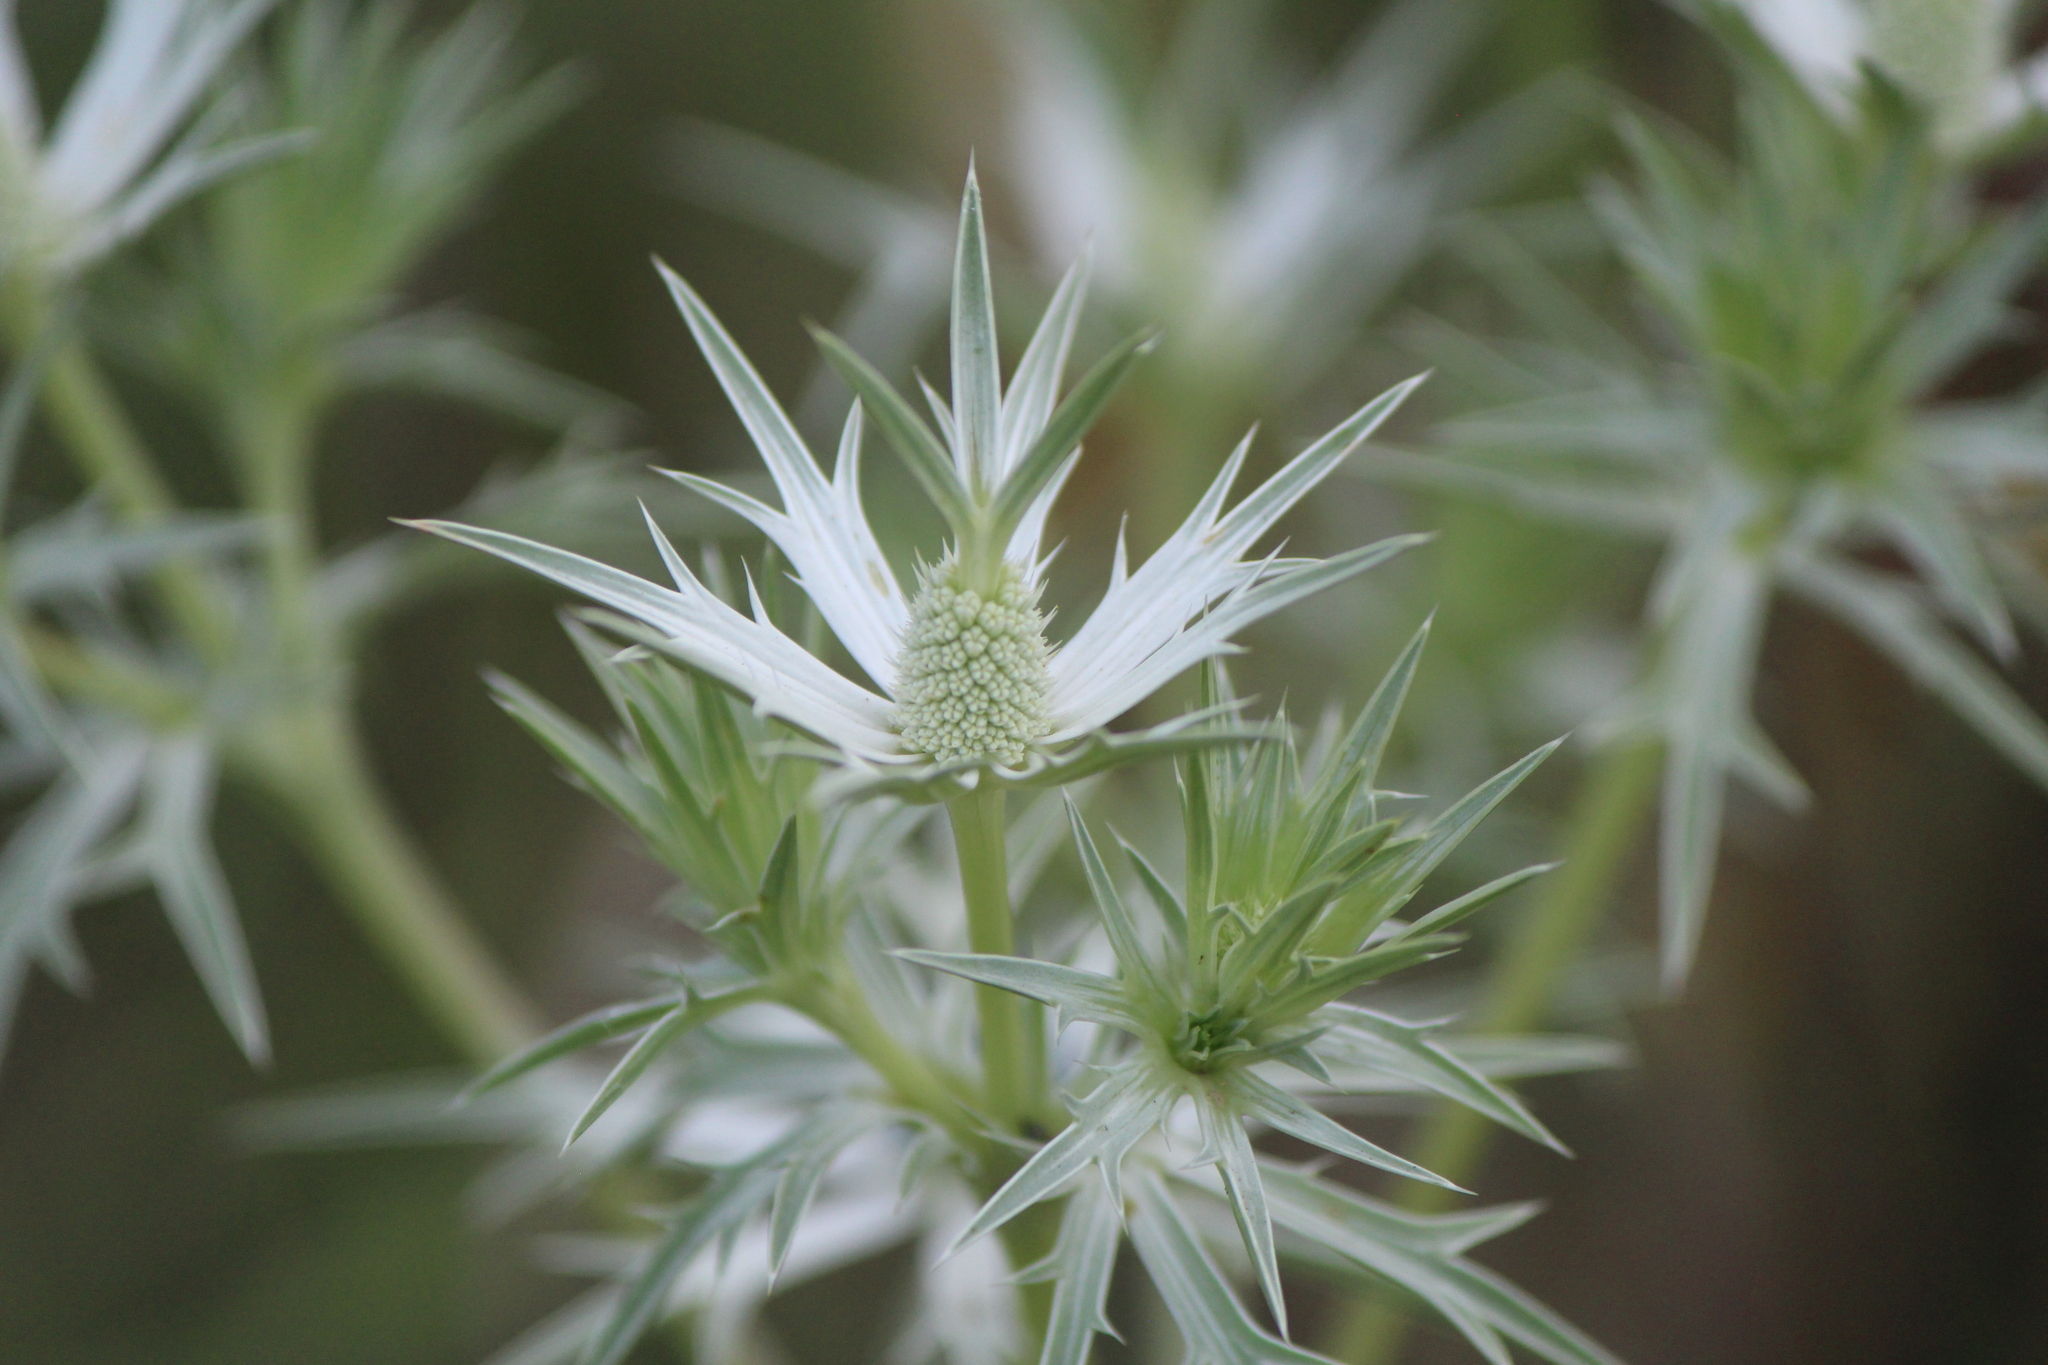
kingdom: Plantae
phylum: Tracheophyta
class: Magnoliopsida
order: Apiales
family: Apiaceae
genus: Eryngium
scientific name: Eryngium heterophyllum
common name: Mexican thistle
